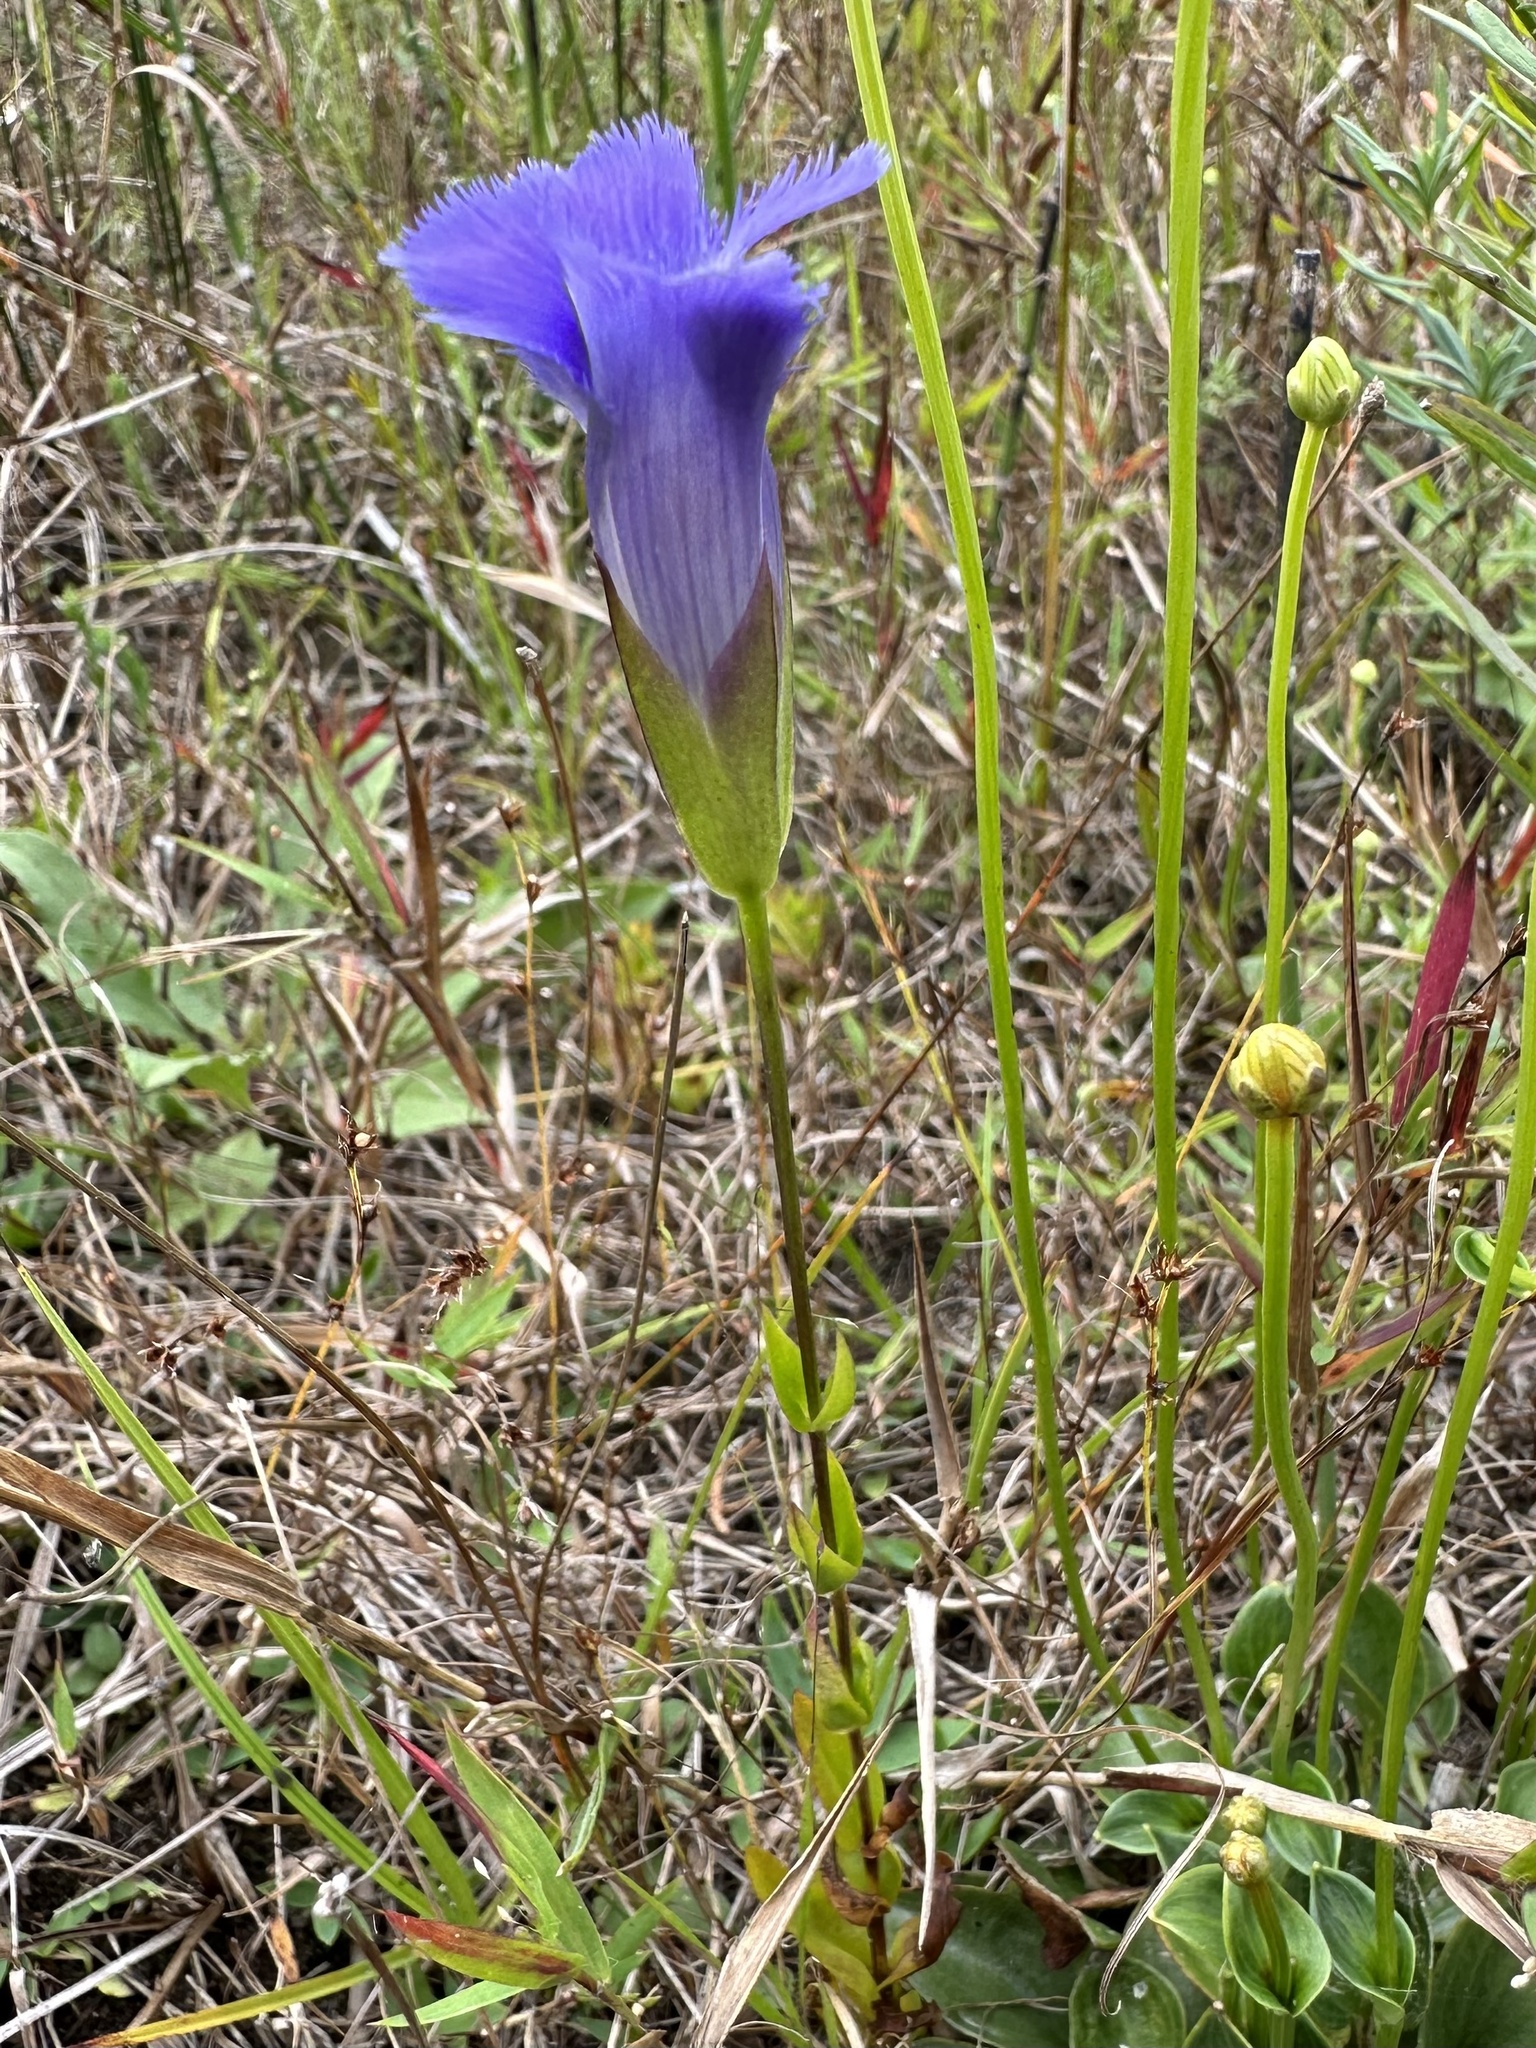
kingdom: Plantae
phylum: Tracheophyta
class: Magnoliopsida
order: Gentianales
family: Gentianaceae
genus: Gentianopsis
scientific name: Gentianopsis crinita
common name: Fringed-gentian
